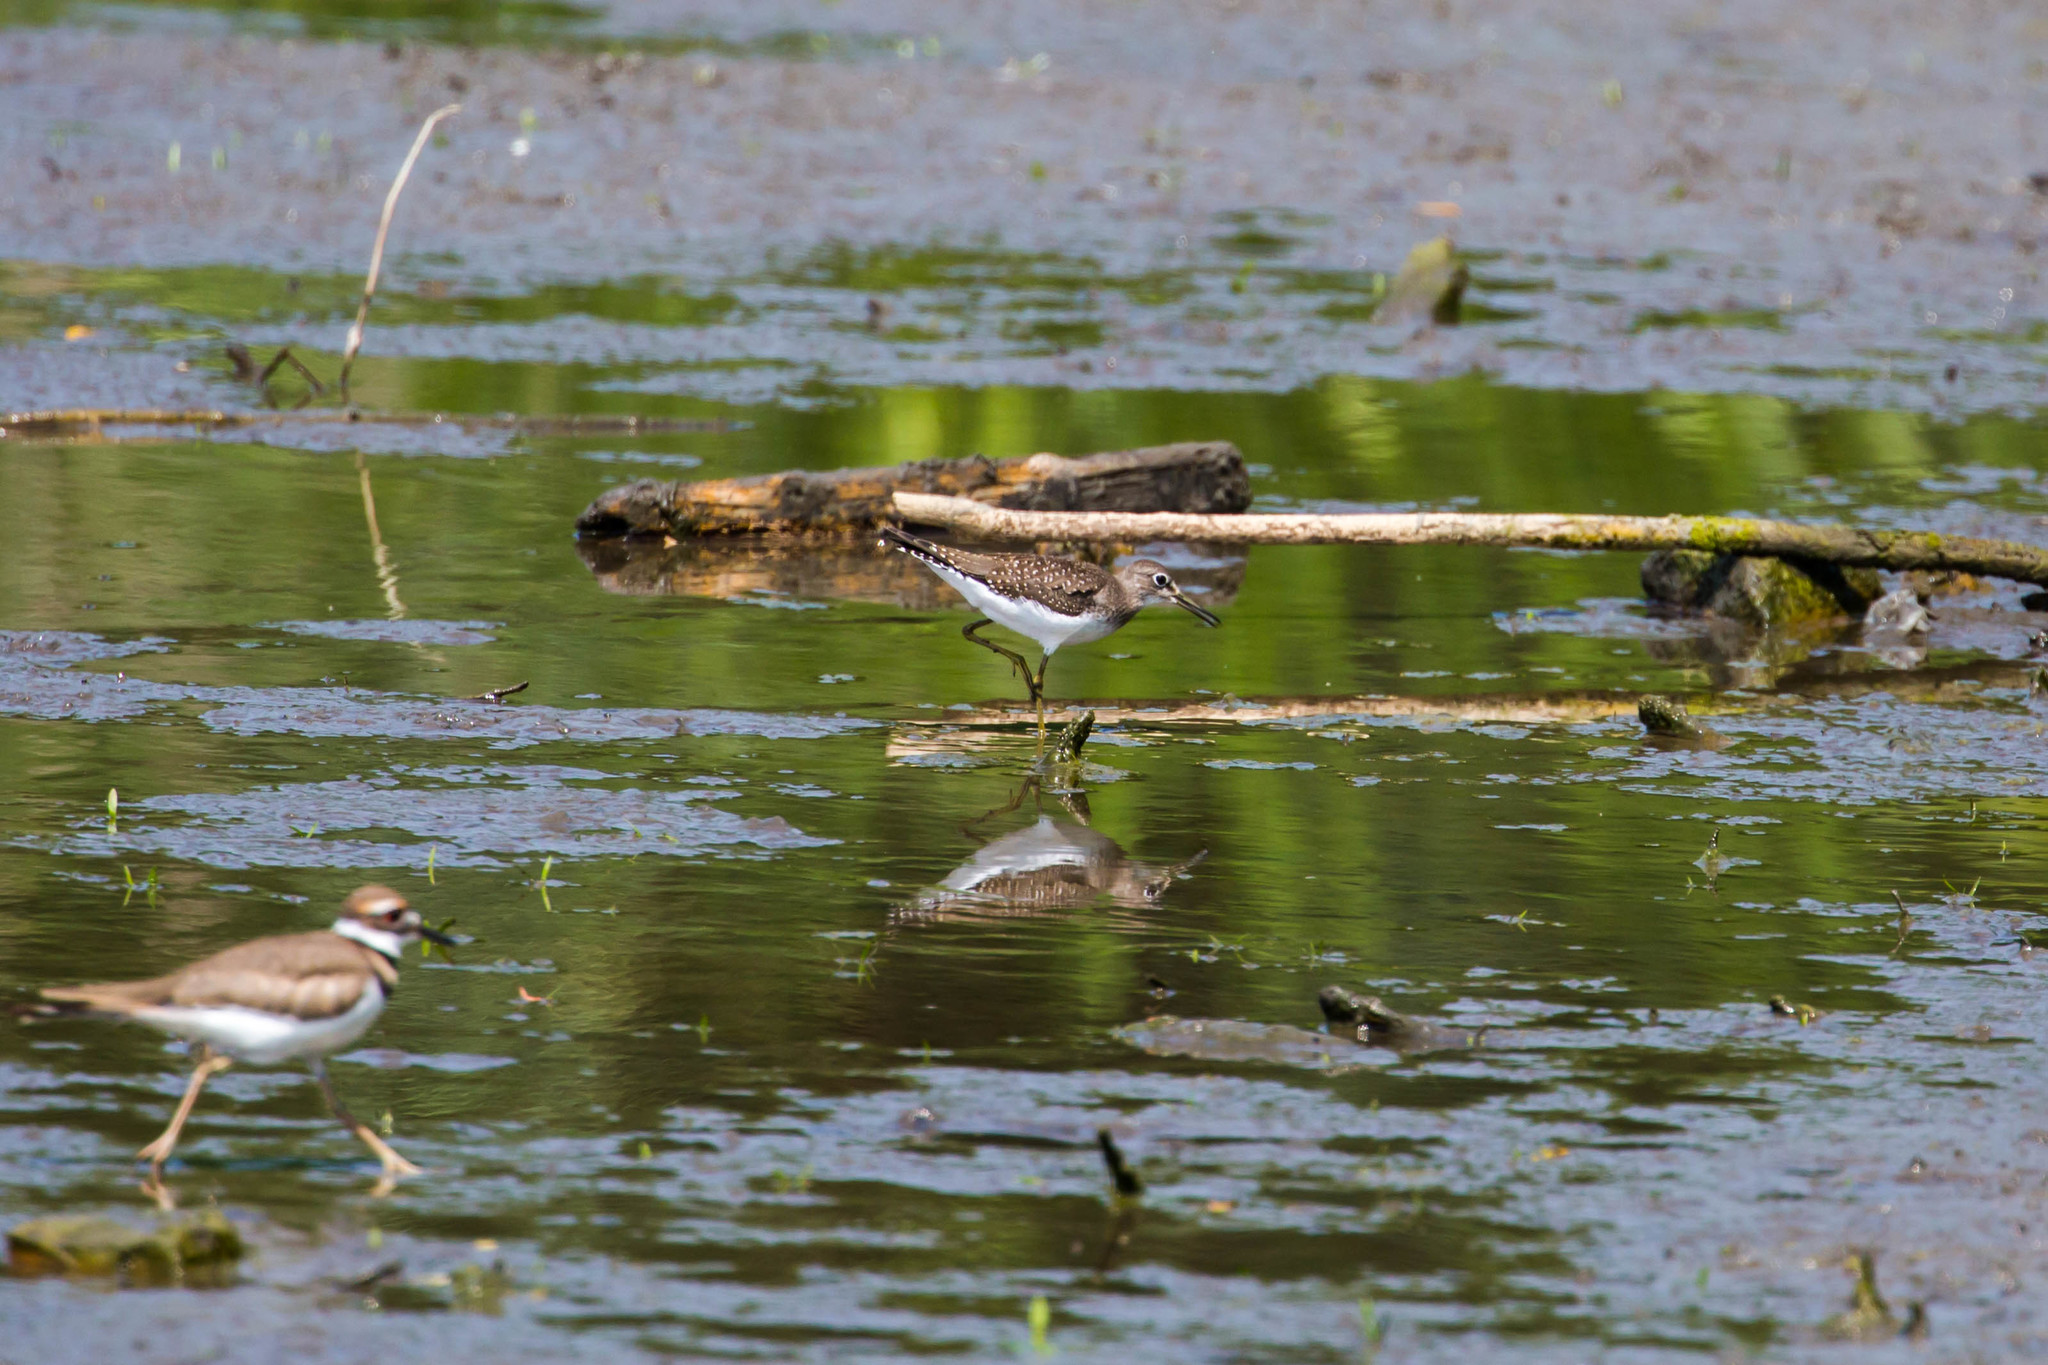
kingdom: Animalia
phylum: Chordata
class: Aves
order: Charadriiformes
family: Scolopacidae
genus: Tringa
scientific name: Tringa solitaria
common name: Solitary sandpiper
